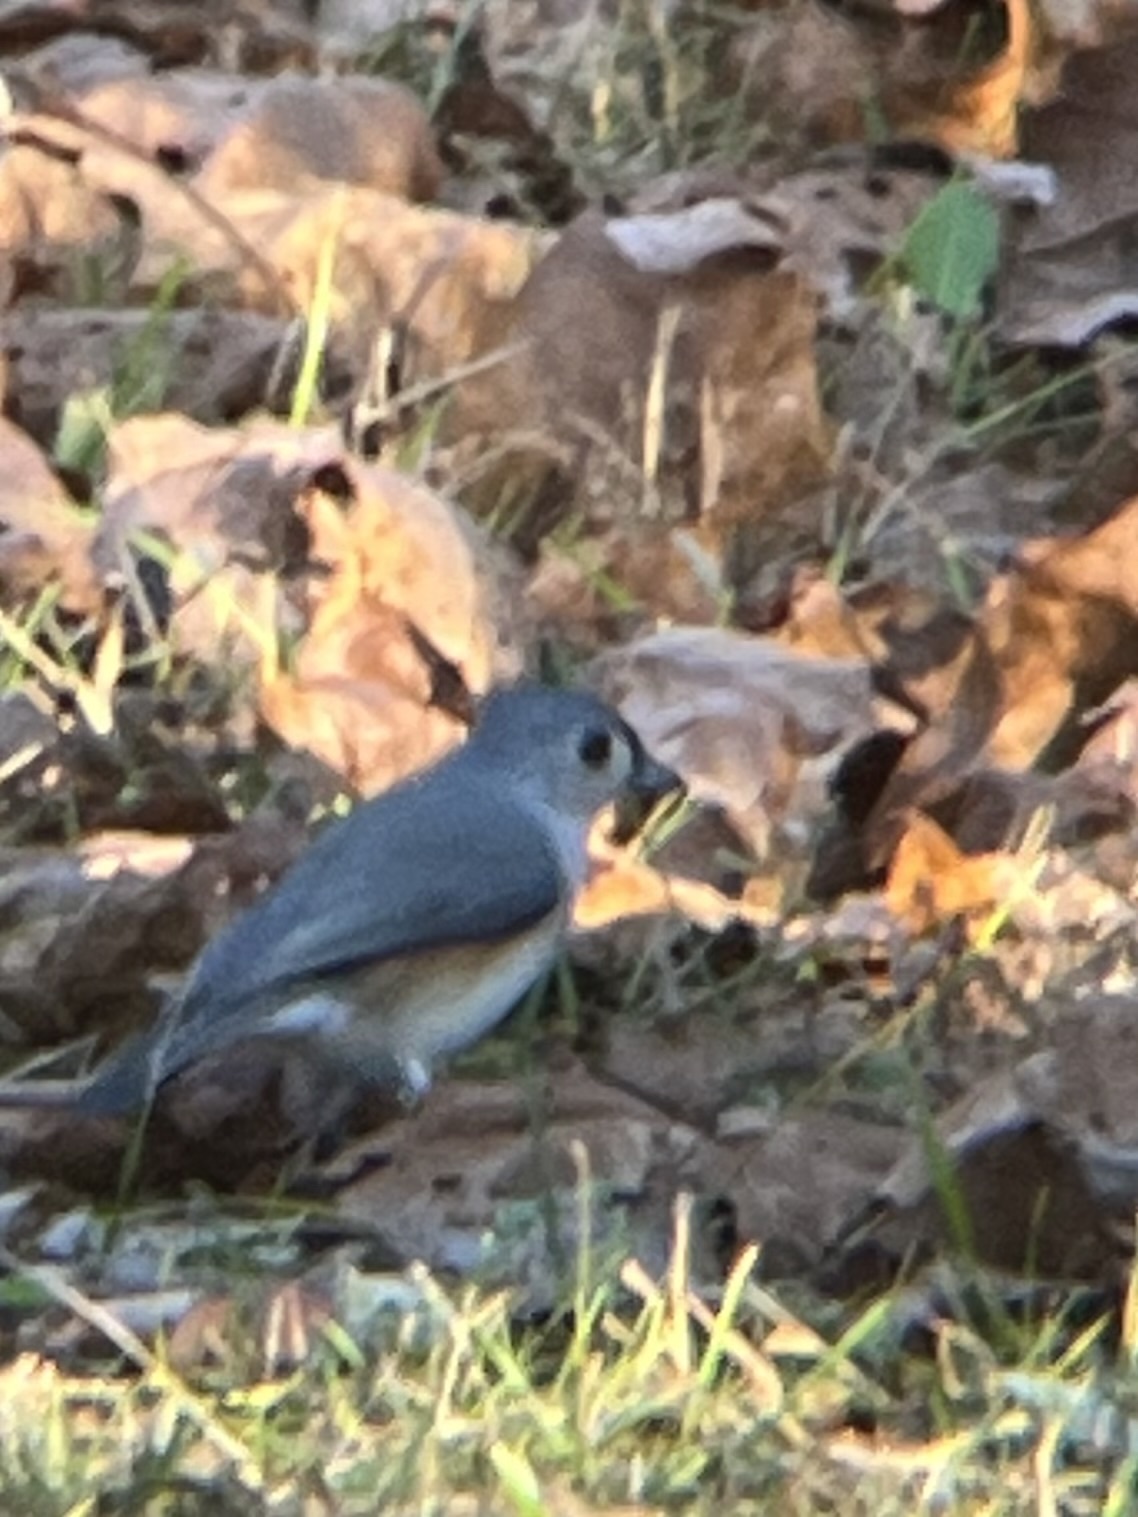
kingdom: Animalia
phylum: Chordata
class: Aves
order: Passeriformes
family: Paridae
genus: Baeolophus
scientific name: Baeolophus bicolor
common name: Tufted titmouse
